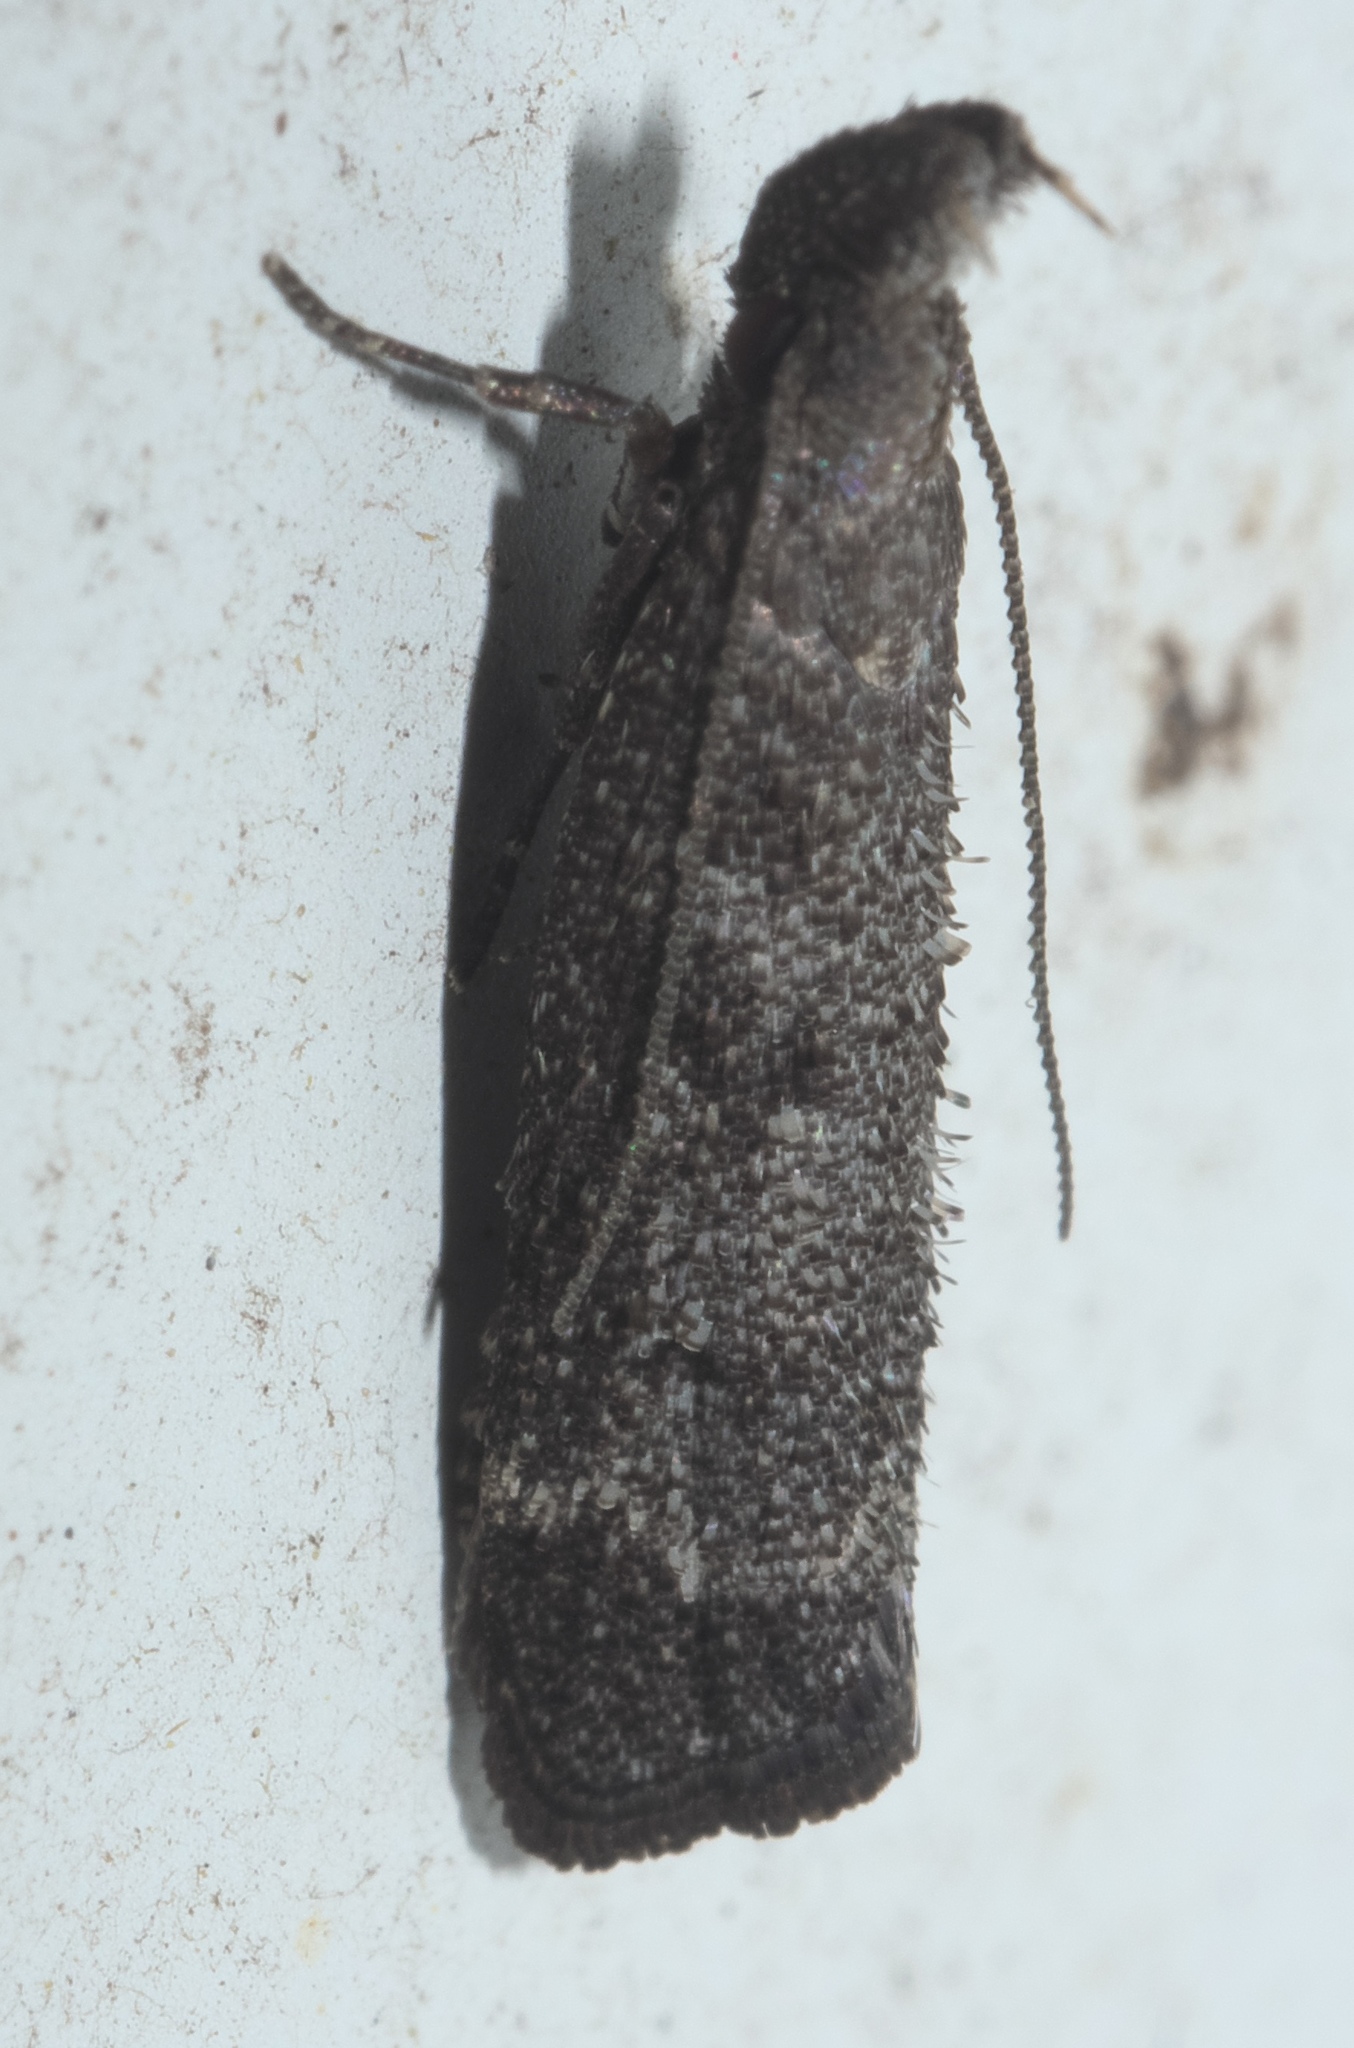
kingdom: Animalia
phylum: Arthropoda
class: Insecta
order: Lepidoptera
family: Gelechiidae
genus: Dichomeris
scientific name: Dichomeris inversella
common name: Inverse dichomeris moth
